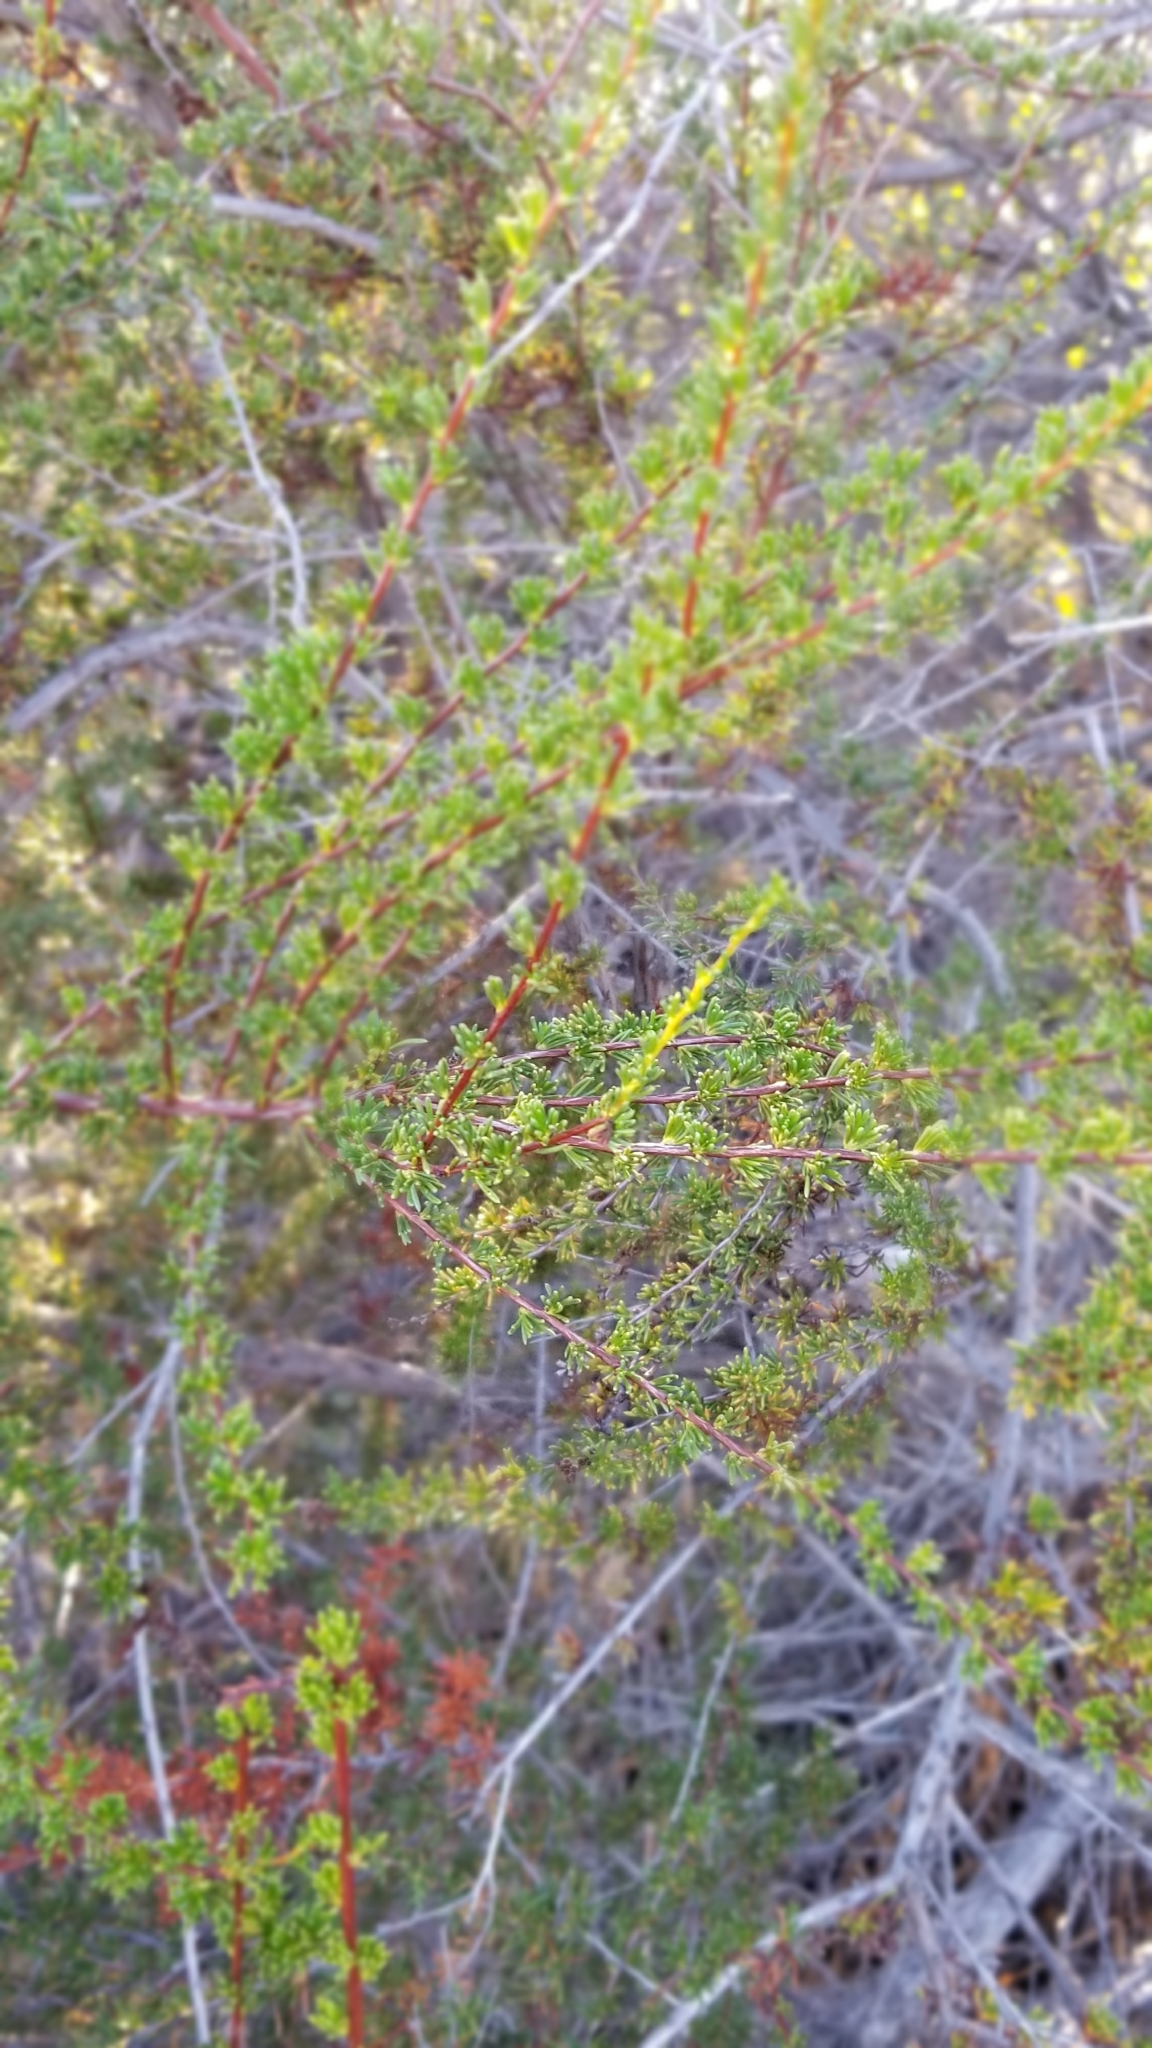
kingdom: Plantae
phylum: Tracheophyta
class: Magnoliopsida
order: Rosales
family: Rosaceae
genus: Adenostoma
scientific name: Adenostoma fasciculatum
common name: Chamise
